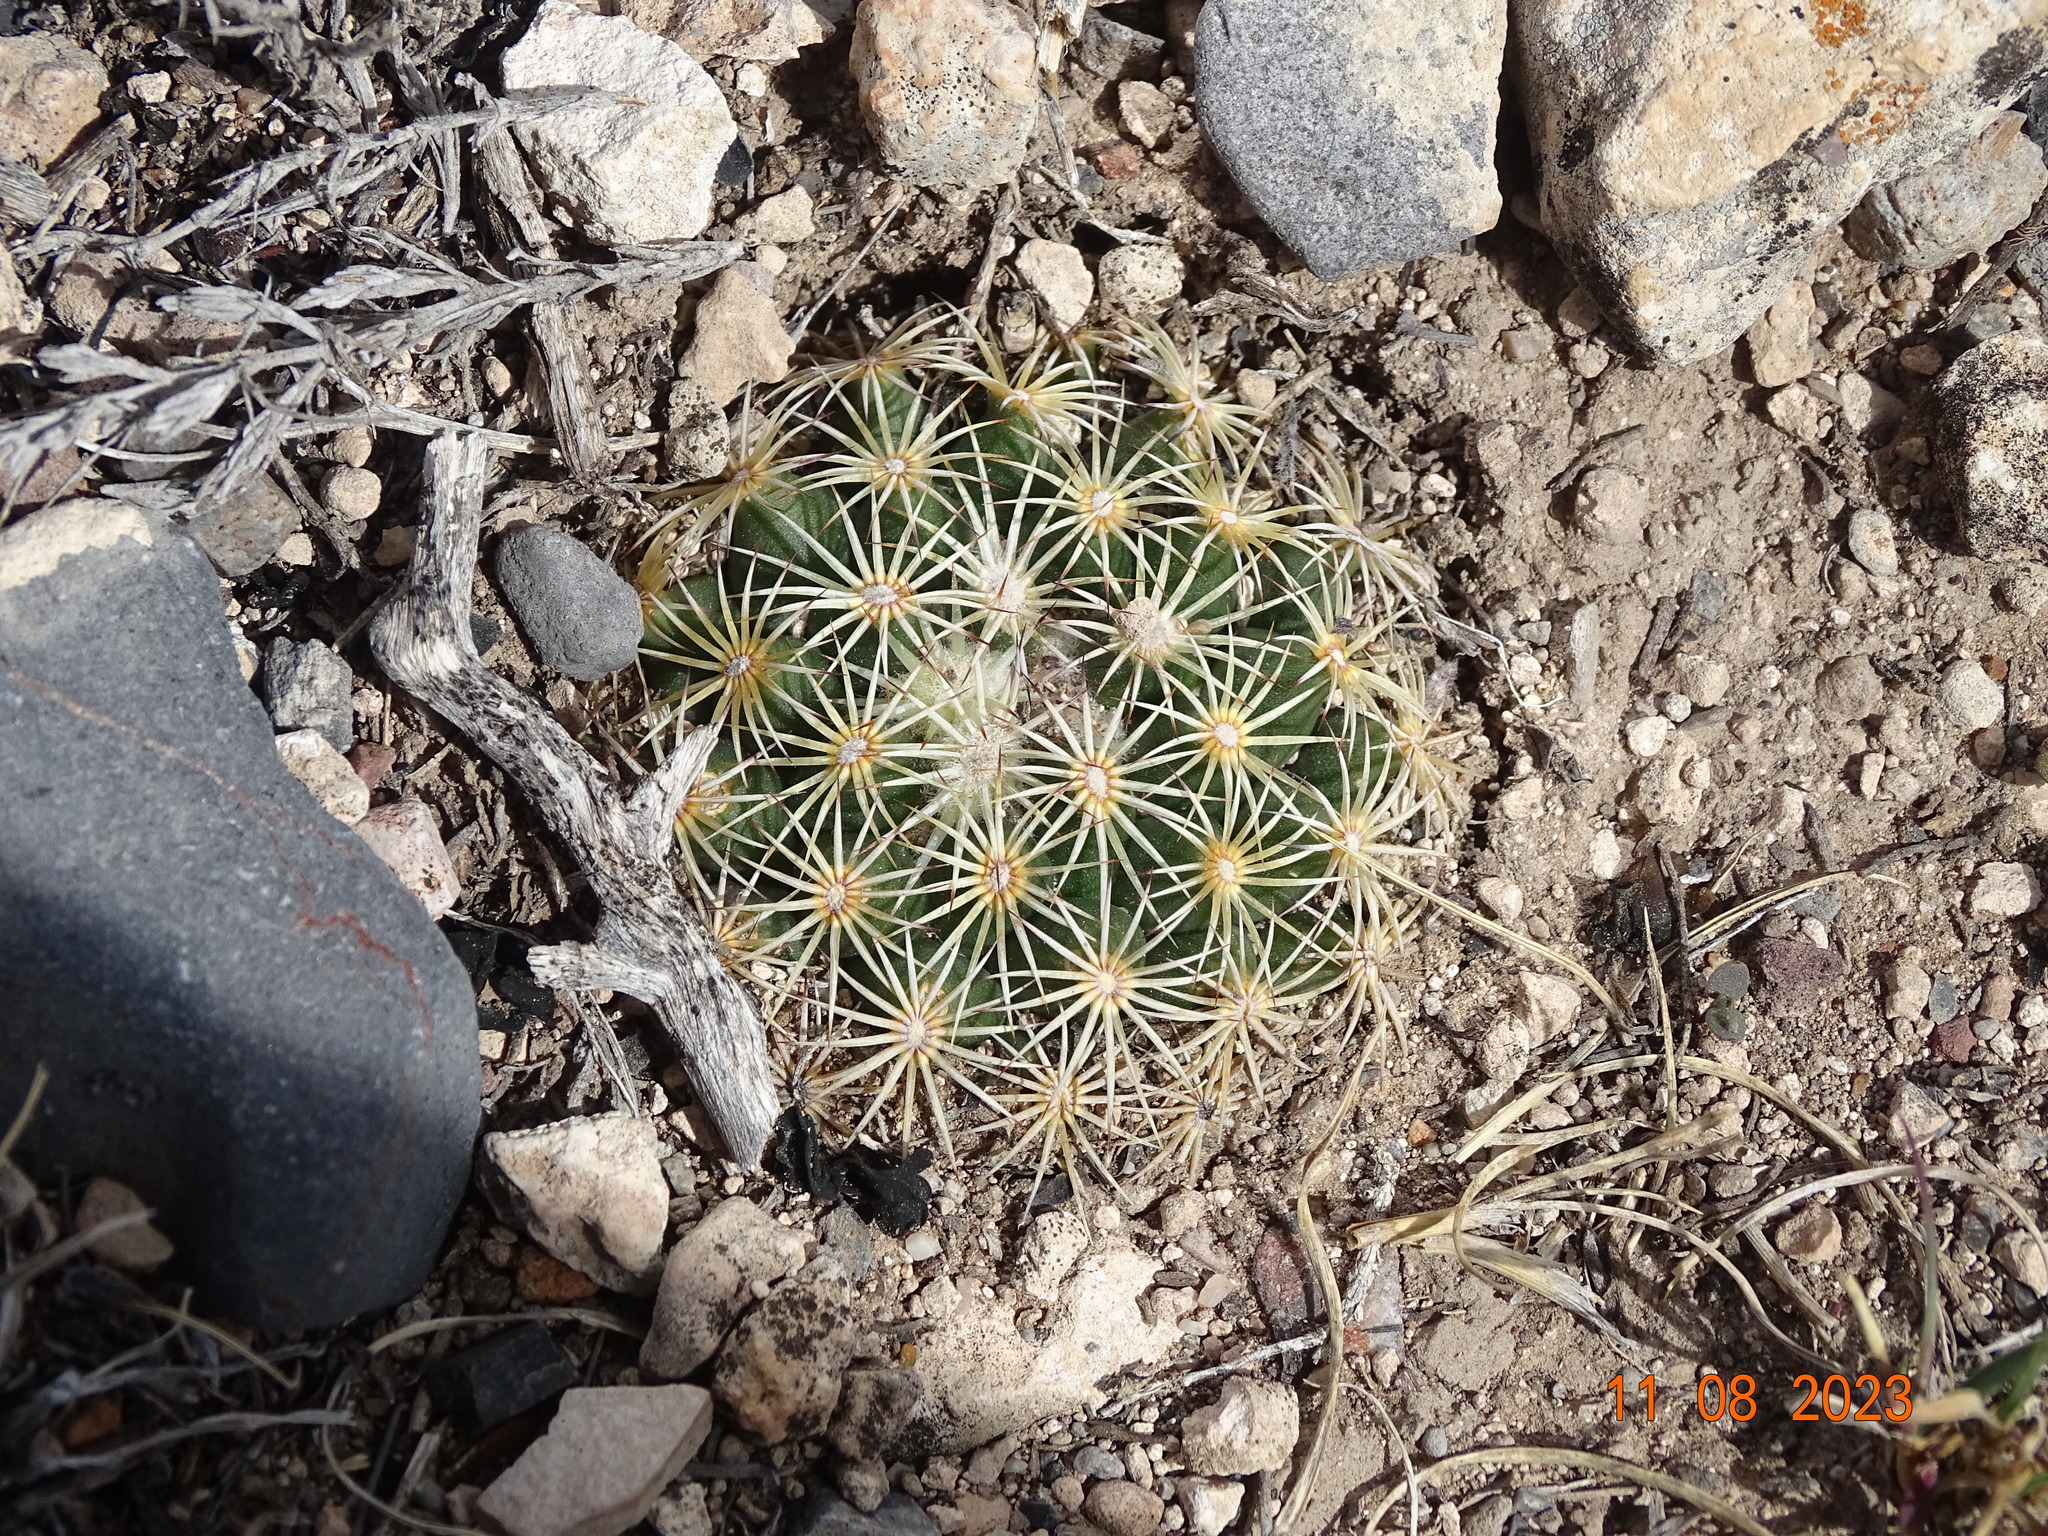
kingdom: Plantae
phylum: Tracheophyta
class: Magnoliopsida
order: Caryophyllales
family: Cactaceae
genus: Coryphantha
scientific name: Coryphantha delicata
